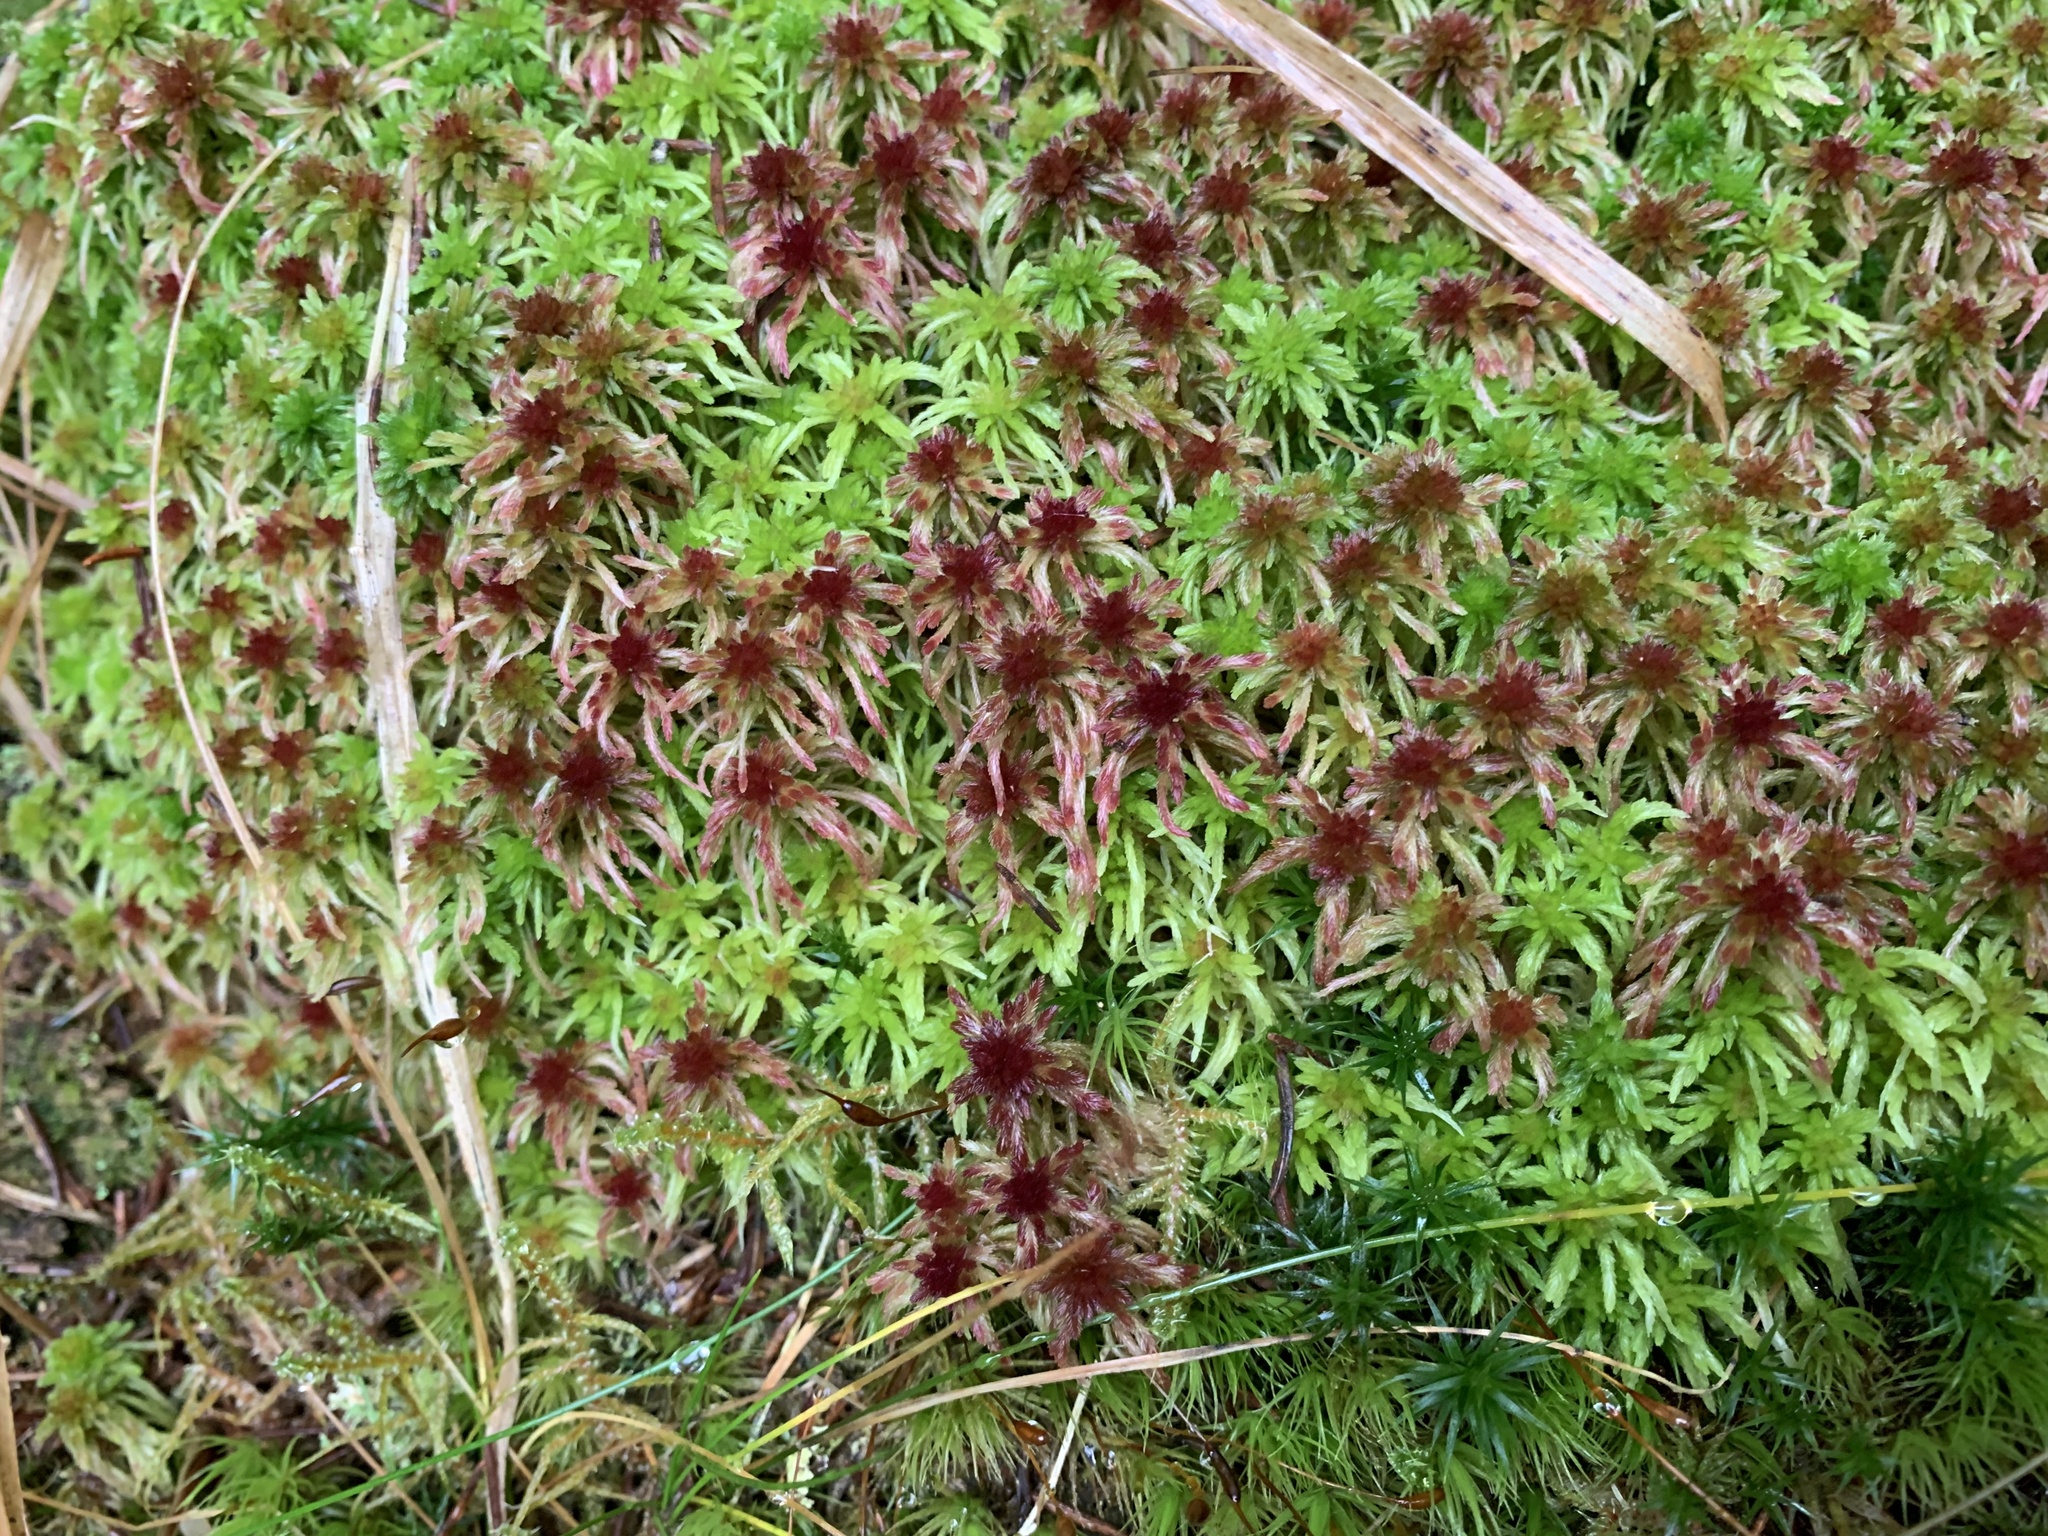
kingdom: Plantae
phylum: Bryophyta
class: Sphagnopsida
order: Sphagnales
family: Sphagnaceae
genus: Sphagnum
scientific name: Sphagnum russowii
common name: Russow's peat moss
